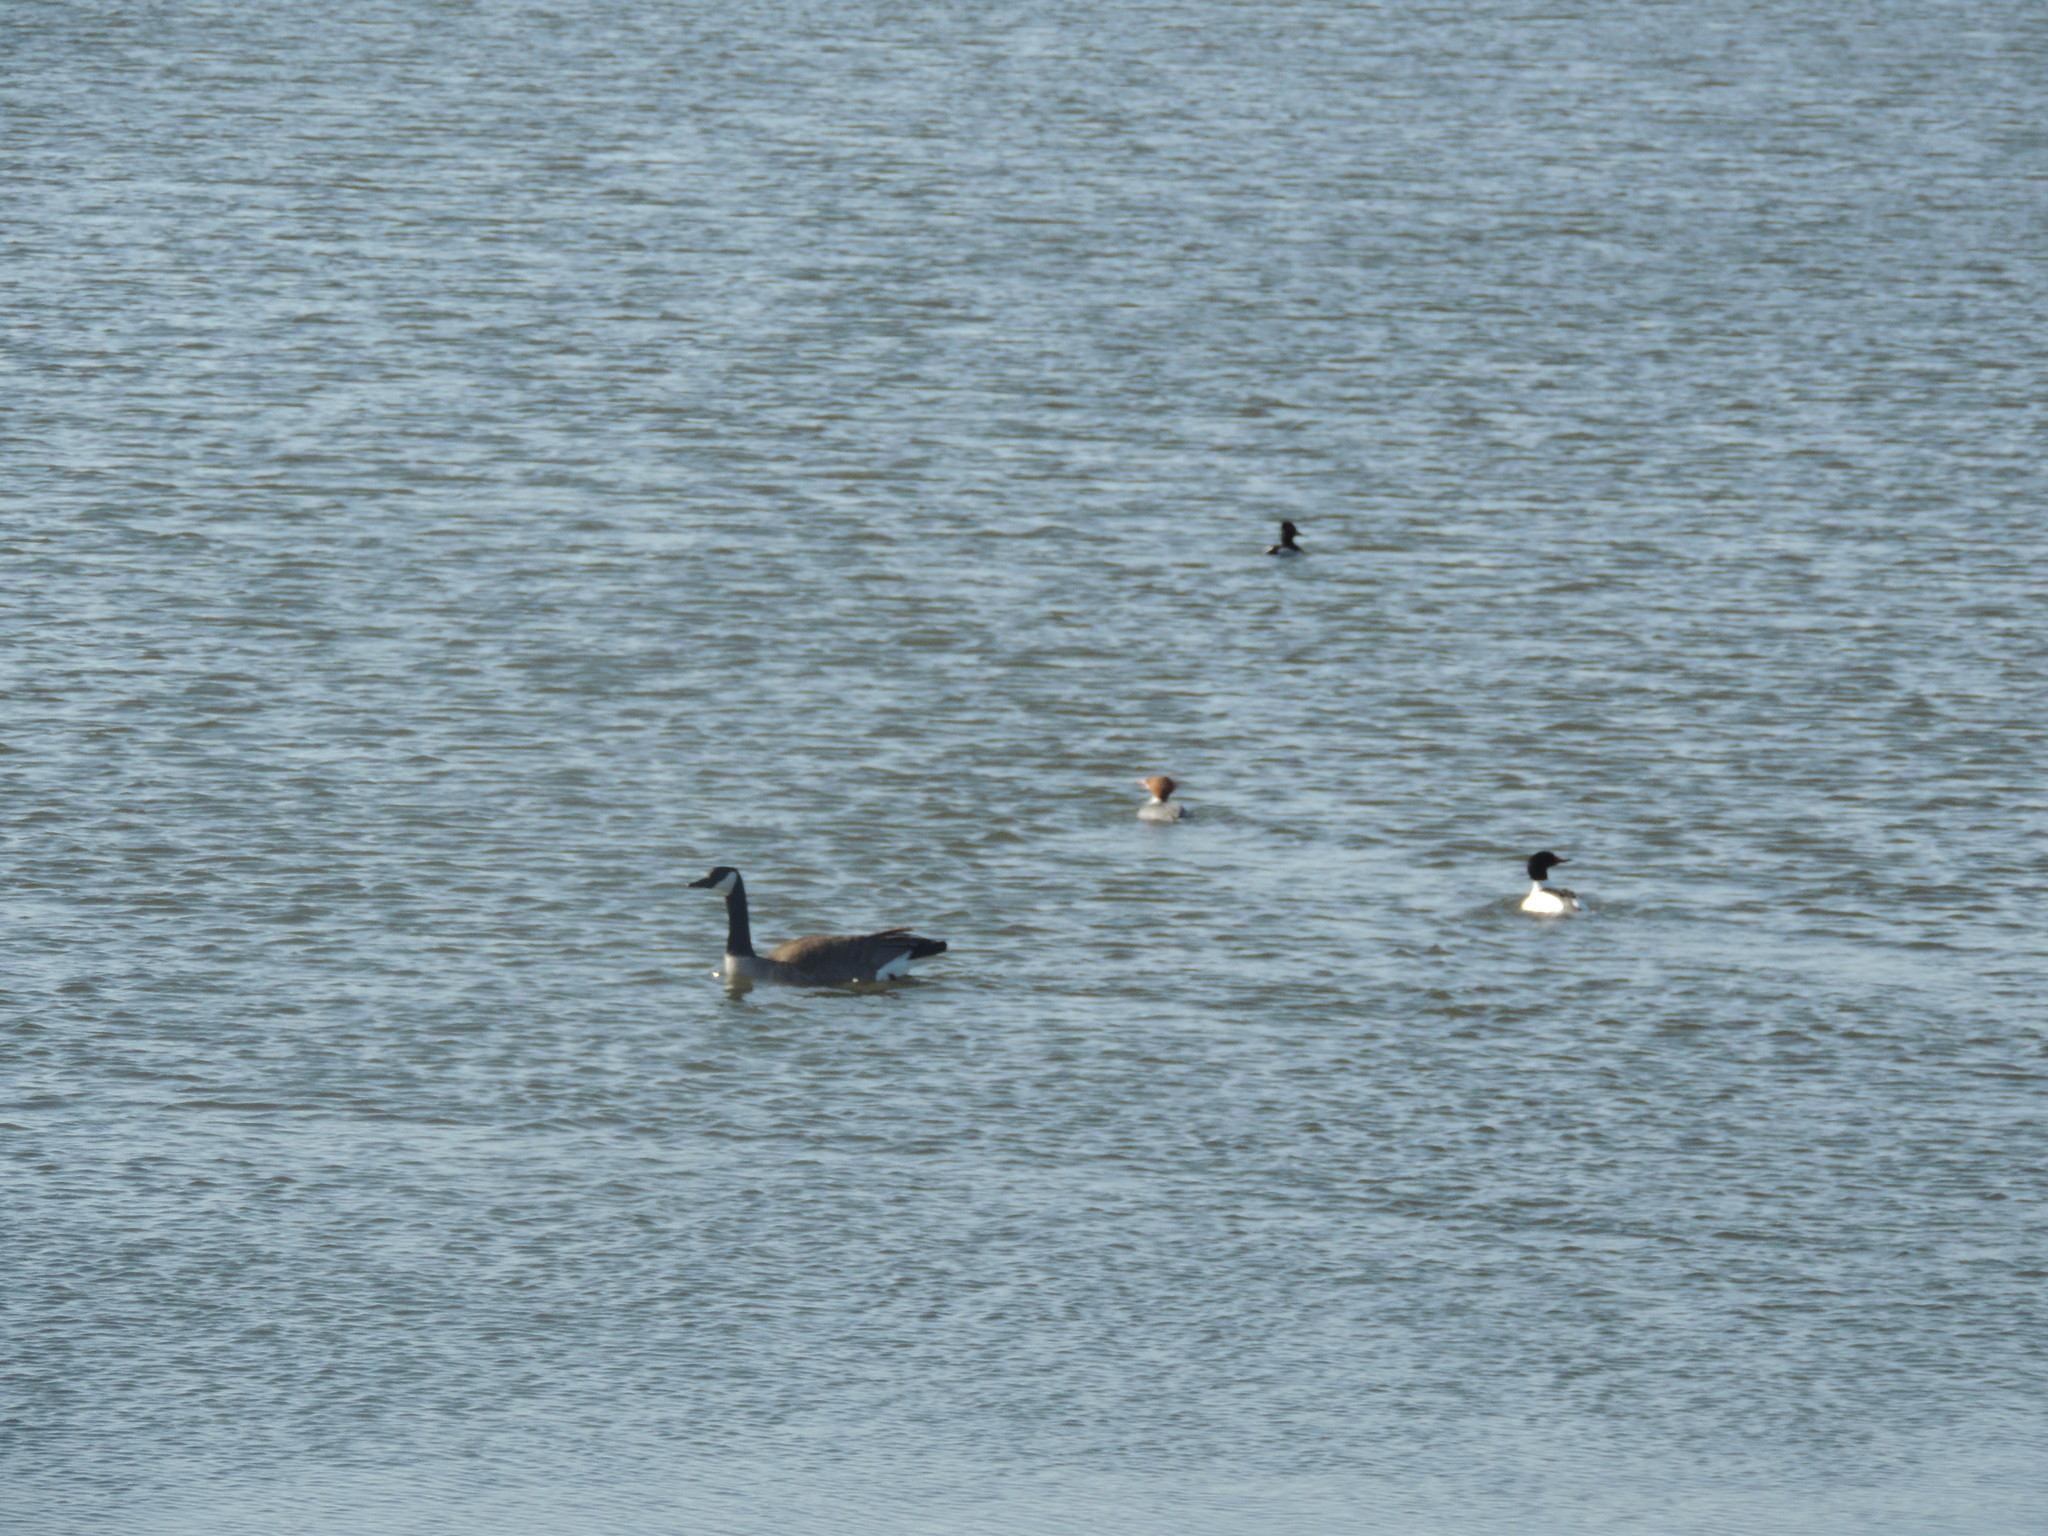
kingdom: Animalia
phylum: Chordata
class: Aves
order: Anseriformes
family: Anatidae
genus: Branta
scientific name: Branta canadensis
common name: Canada goose
